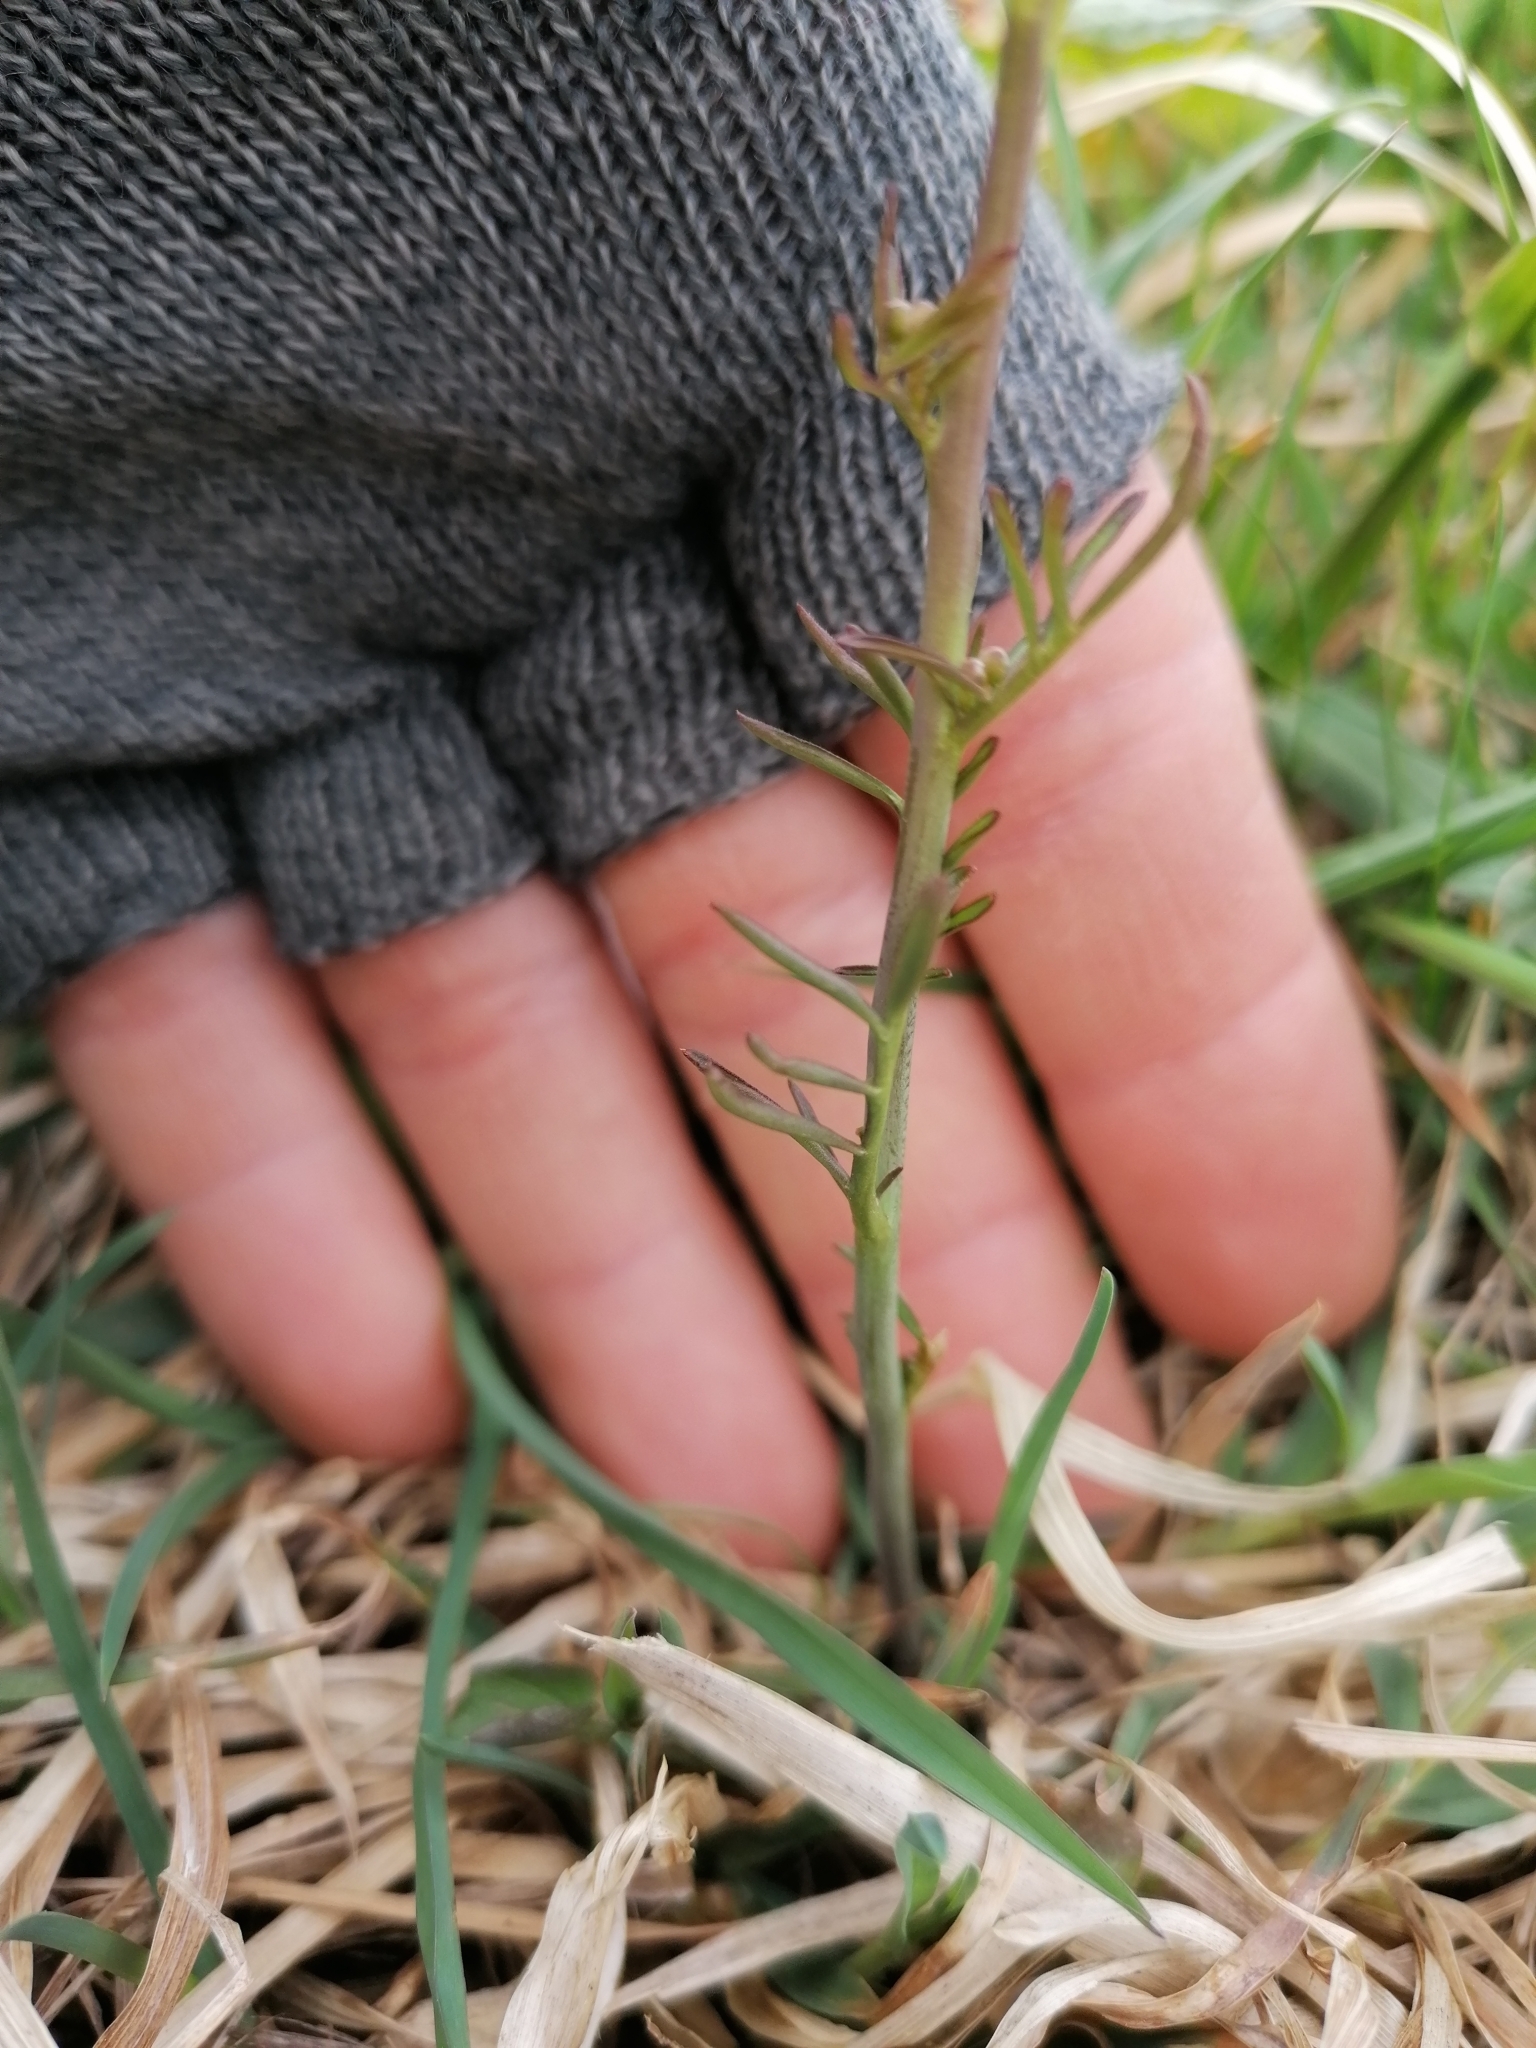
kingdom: Plantae
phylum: Tracheophyta
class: Magnoliopsida
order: Brassicales
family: Brassicaceae
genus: Cardamine
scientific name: Cardamine pratensis
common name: Cuckoo flower
